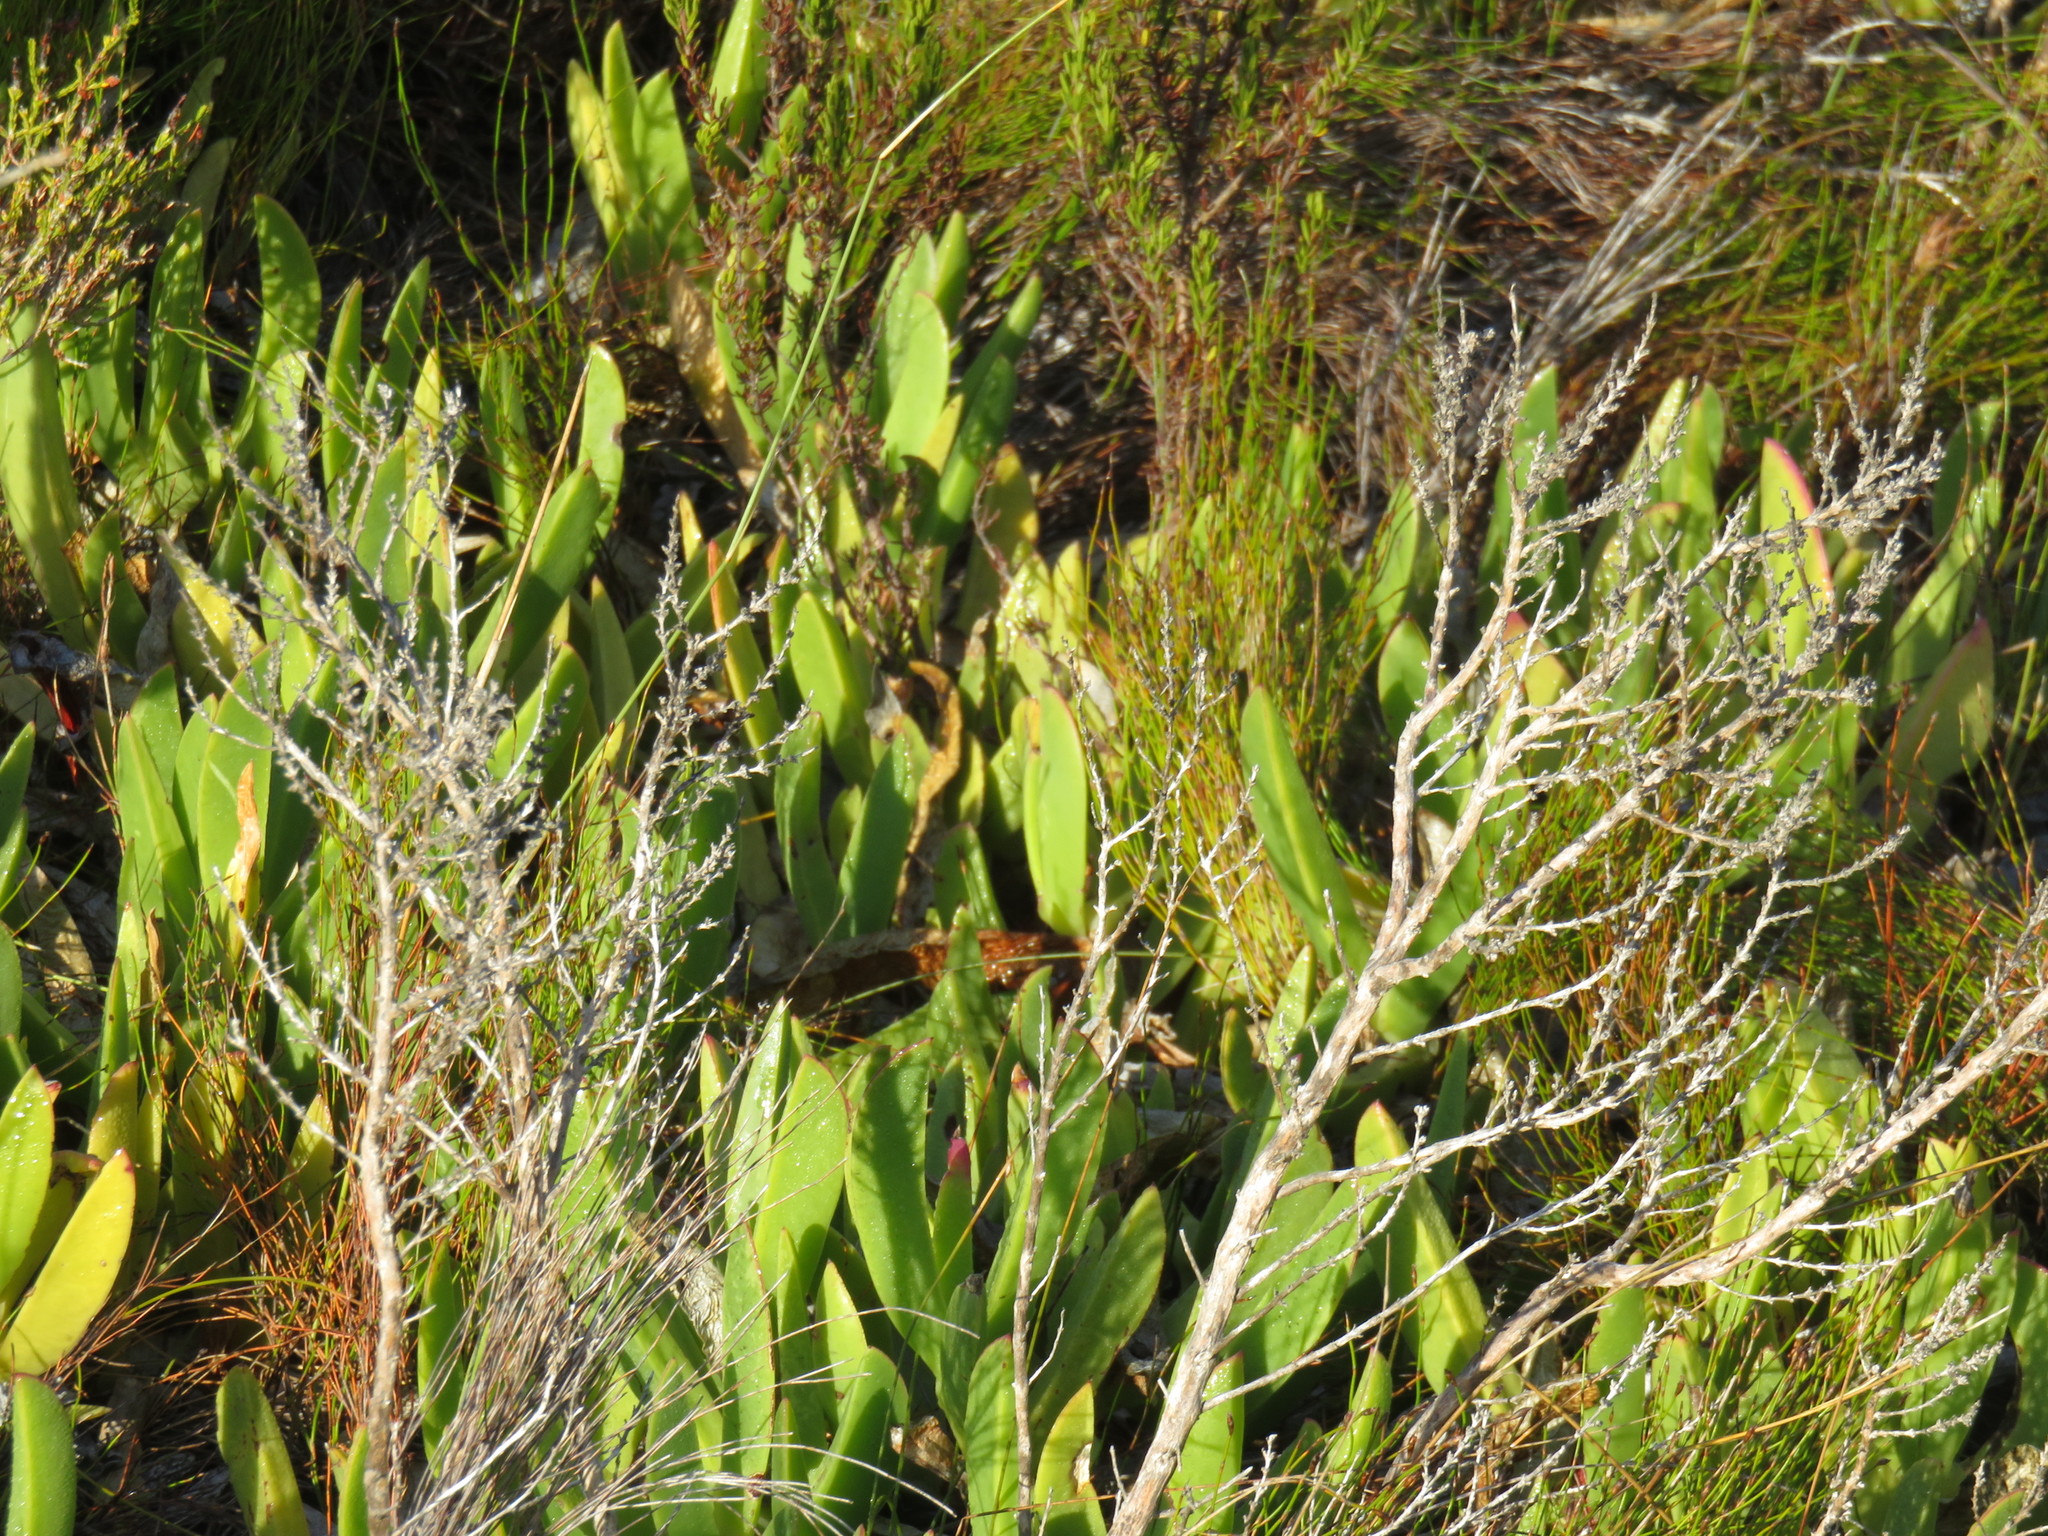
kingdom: Plantae
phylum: Tracheophyta
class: Magnoliopsida
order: Caryophyllales
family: Aizoaceae
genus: Carpobrotus
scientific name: Carpobrotus acinaciformis
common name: Sally-my-handsome
